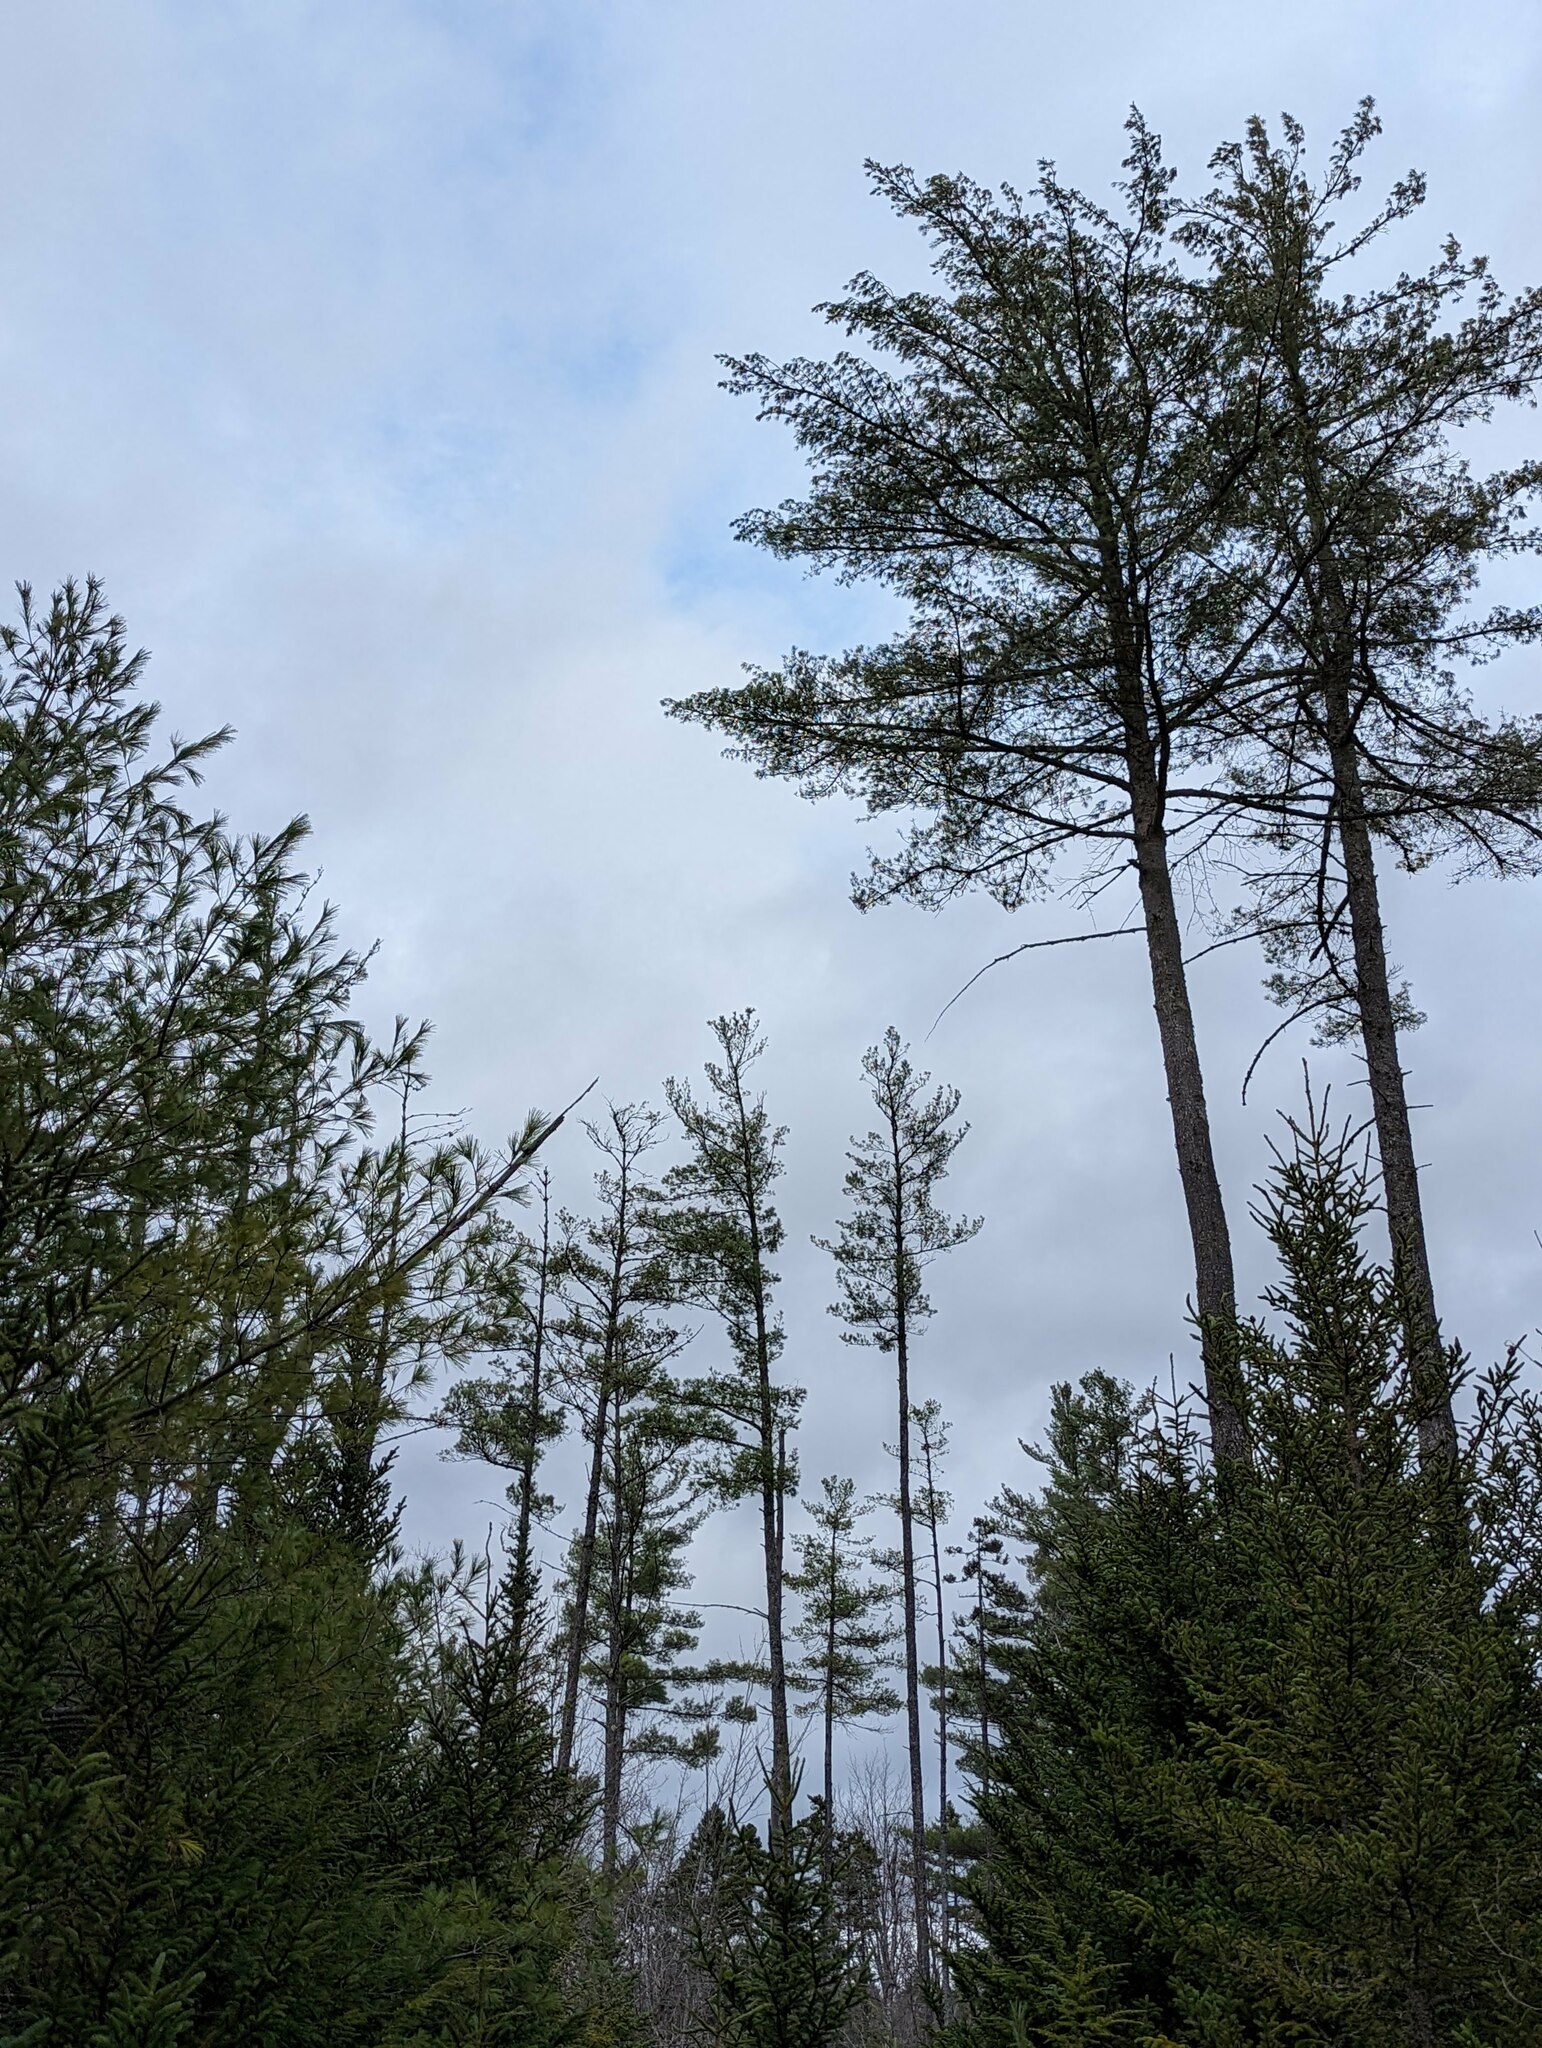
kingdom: Plantae
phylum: Tracheophyta
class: Pinopsida
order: Pinales
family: Pinaceae
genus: Pinus
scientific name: Pinus strobus
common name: Weymouth pine
